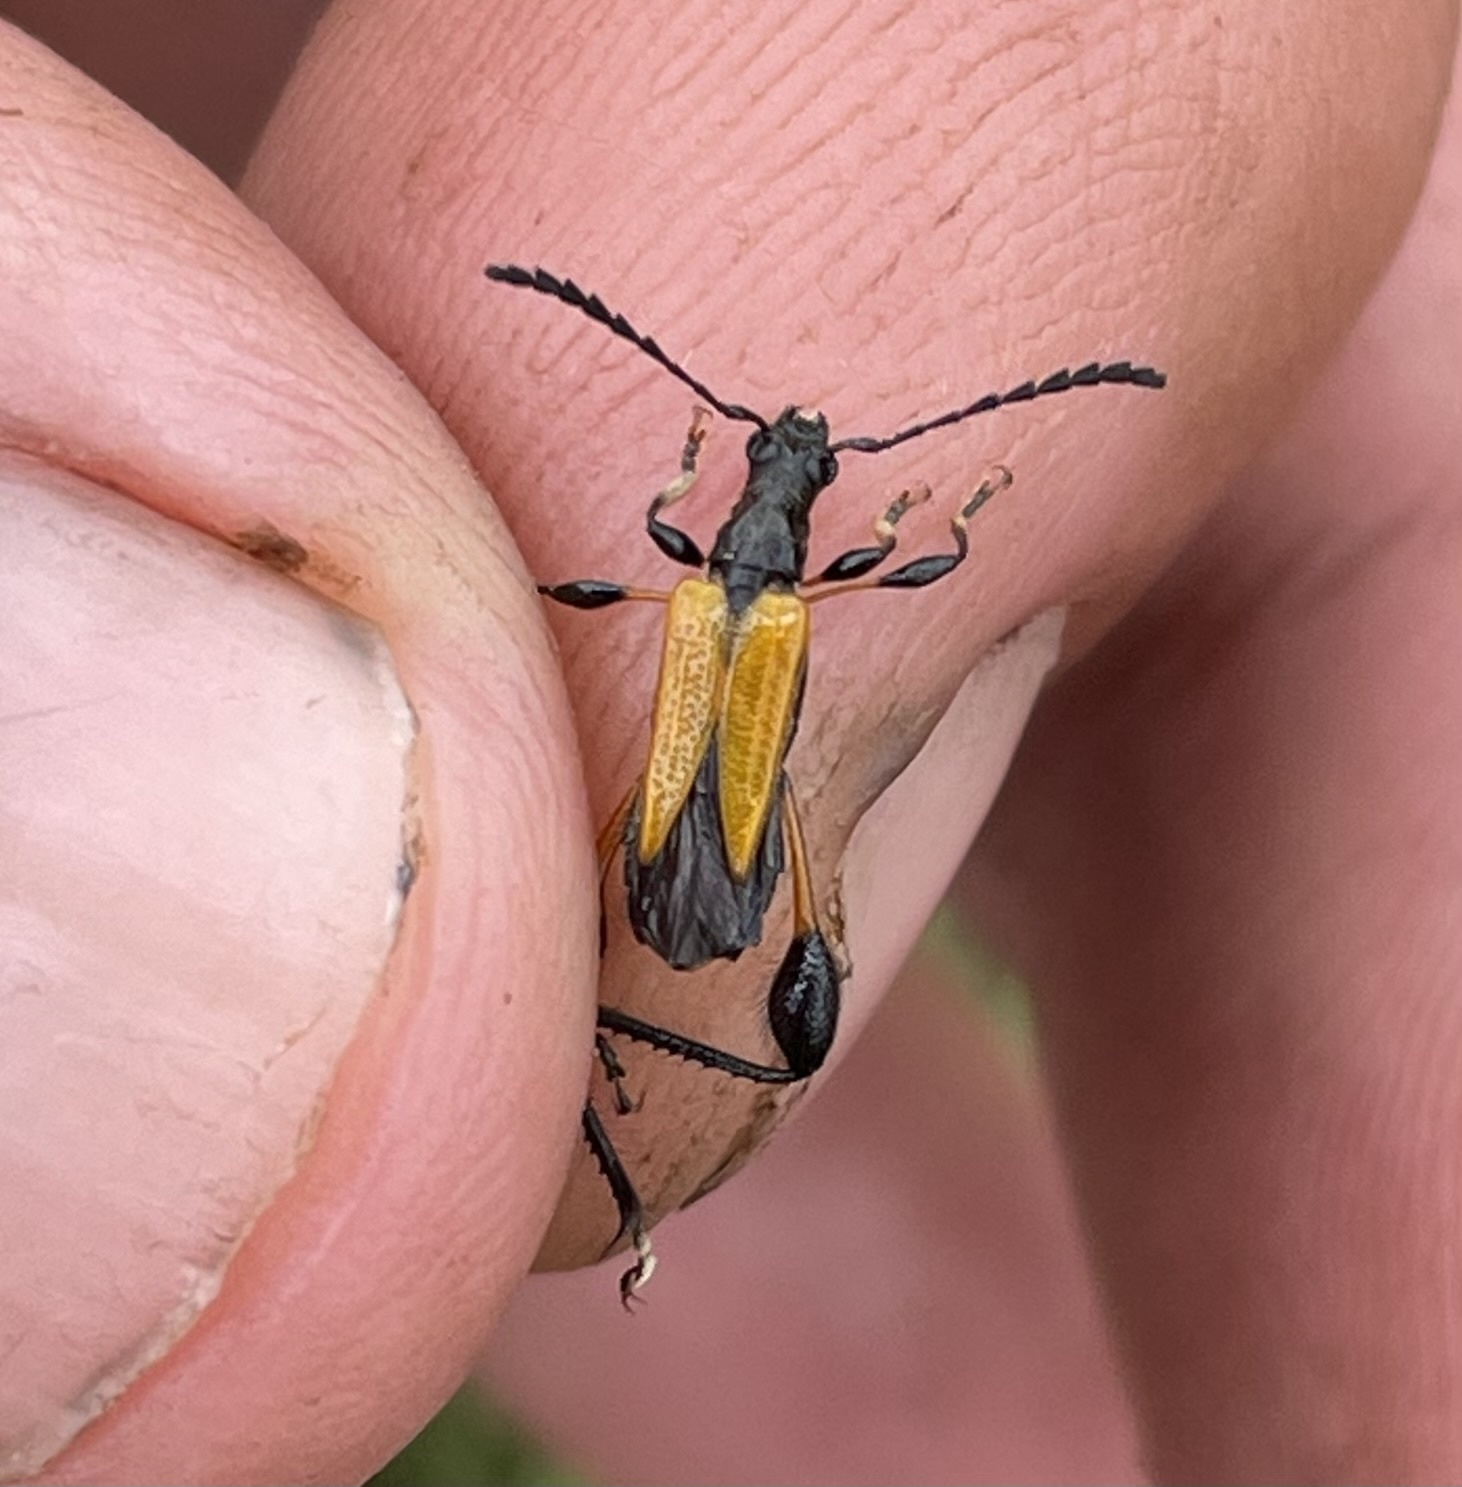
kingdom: Animalia
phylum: Arthropoda
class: Insecta
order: Coleoptera
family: Cerambycidae
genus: Merionoeda
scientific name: Merionoeda africana
